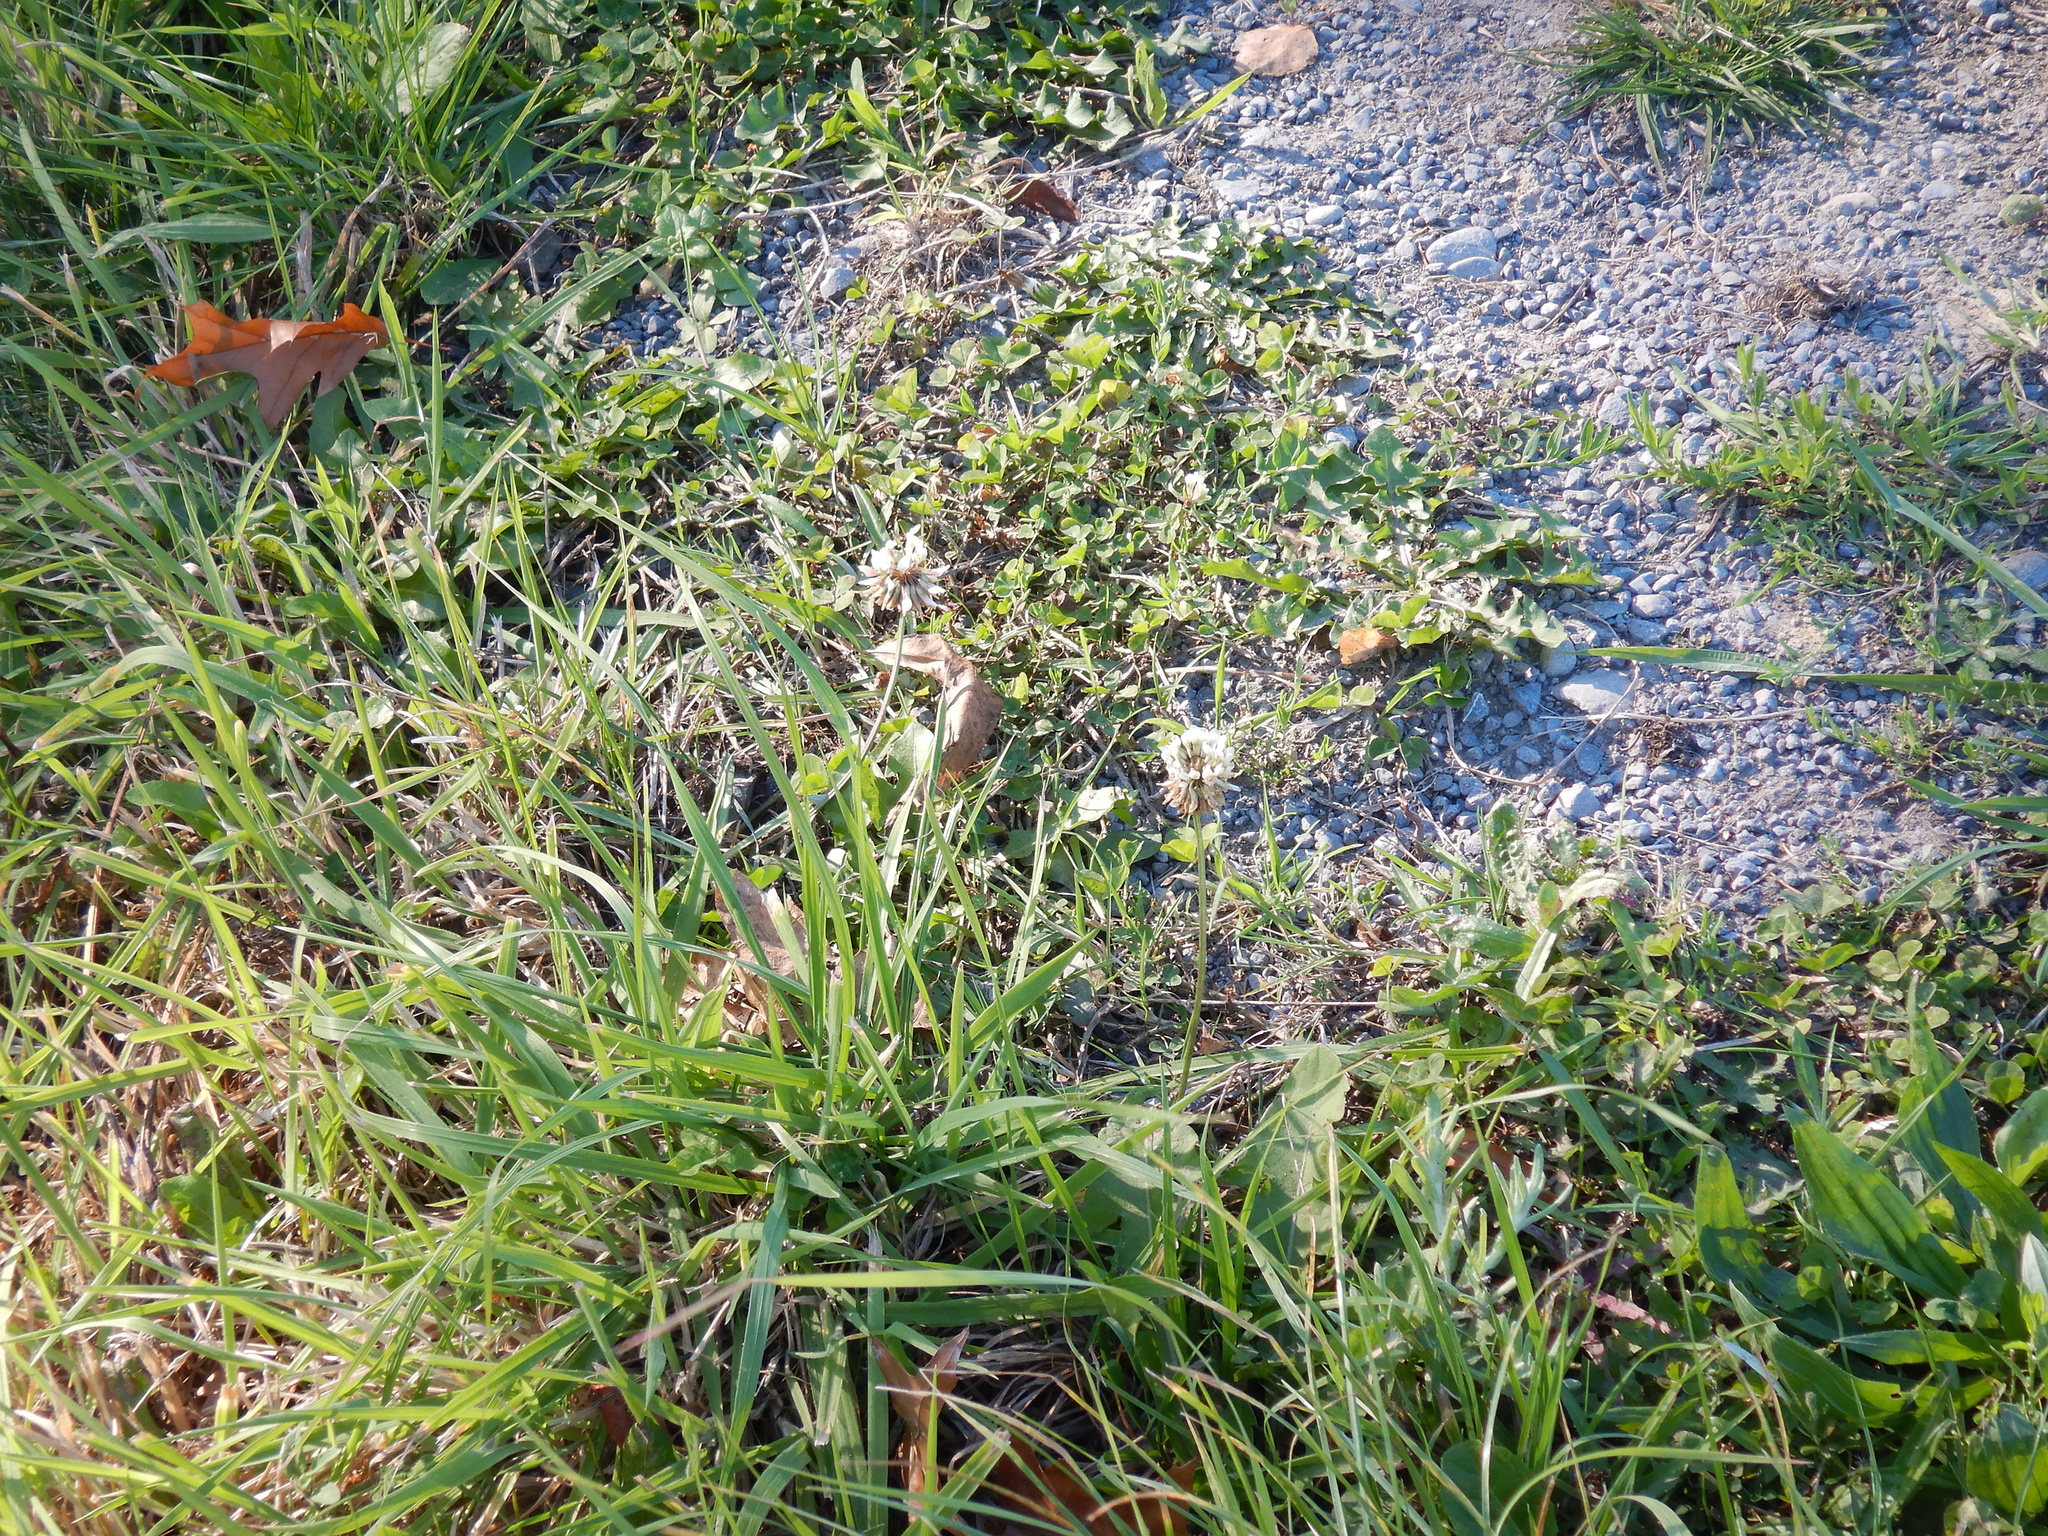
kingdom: Plantae
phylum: Tracheophyta
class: Magnoliopsida
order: Fabales
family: Fabaceae
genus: Trifolium
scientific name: Trifolium repens
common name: White clover
